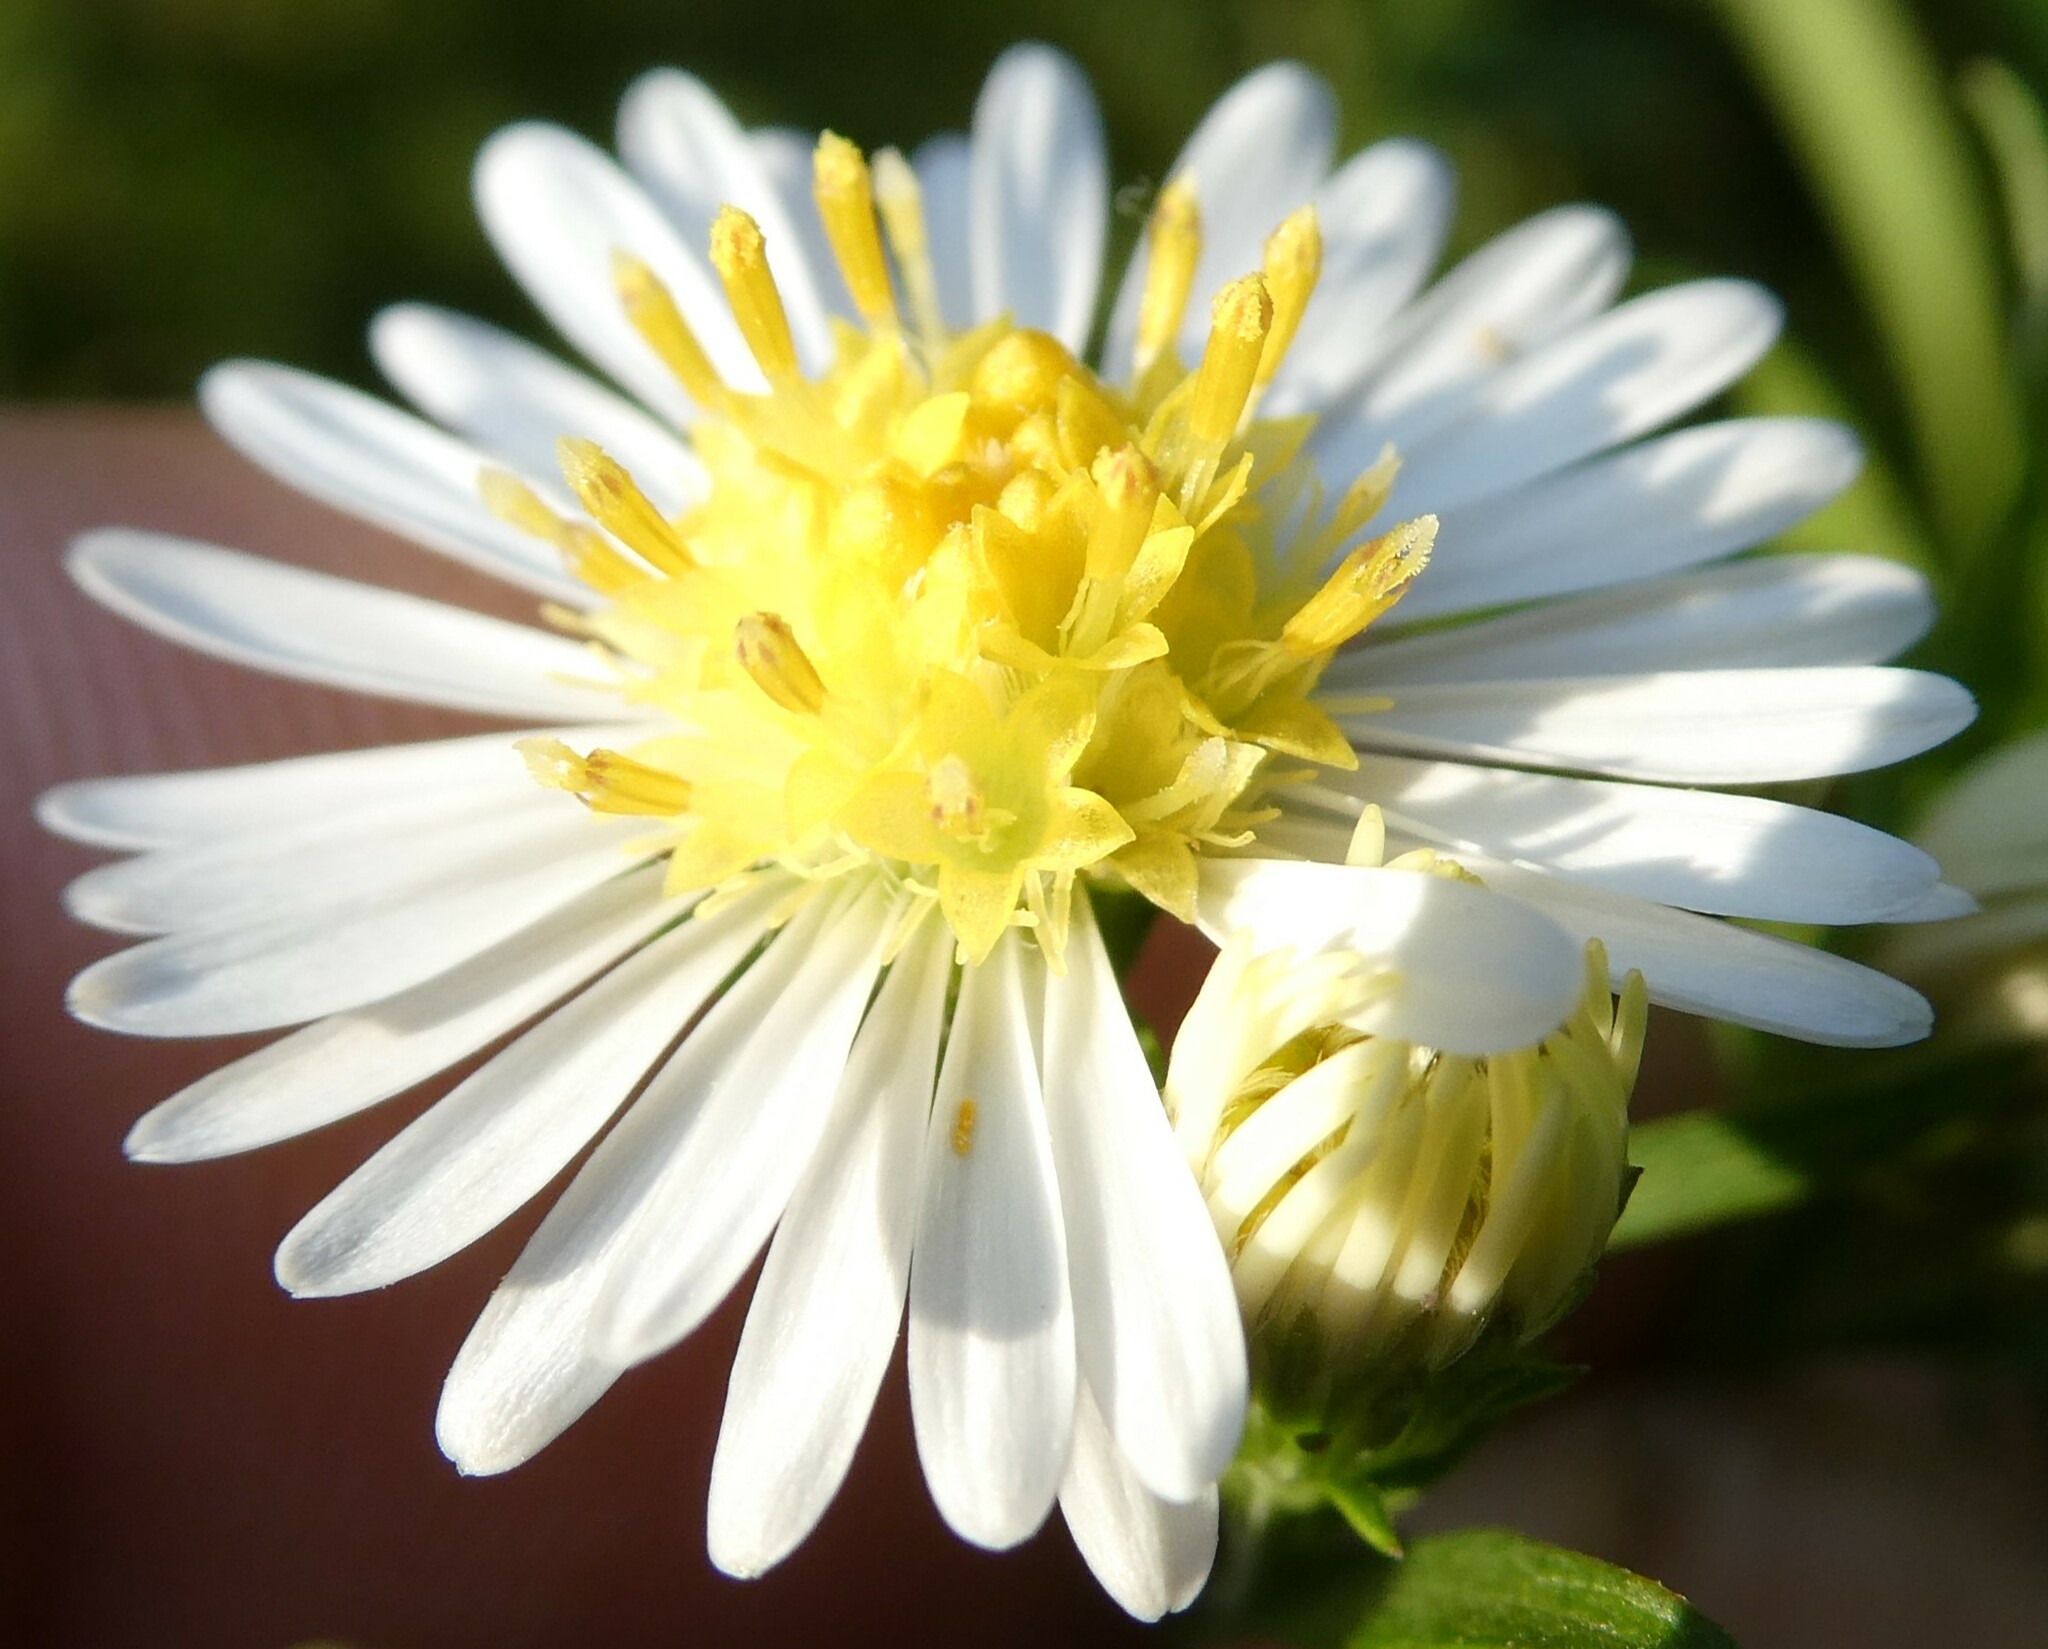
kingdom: Plantae
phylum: Tracheophyta
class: Magnoliopsida
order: Asterales
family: Asteraceae
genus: Symphyotrichum
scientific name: Symphyotrichum lanceolatum
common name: Panicled aster
